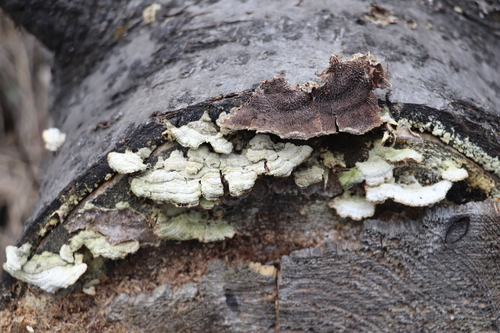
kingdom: Fungi
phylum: Basidiomycota
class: Agaricomycetes
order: Hymenochaetales
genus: Trichaptum
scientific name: Trichaptum fuscoviolaceum
